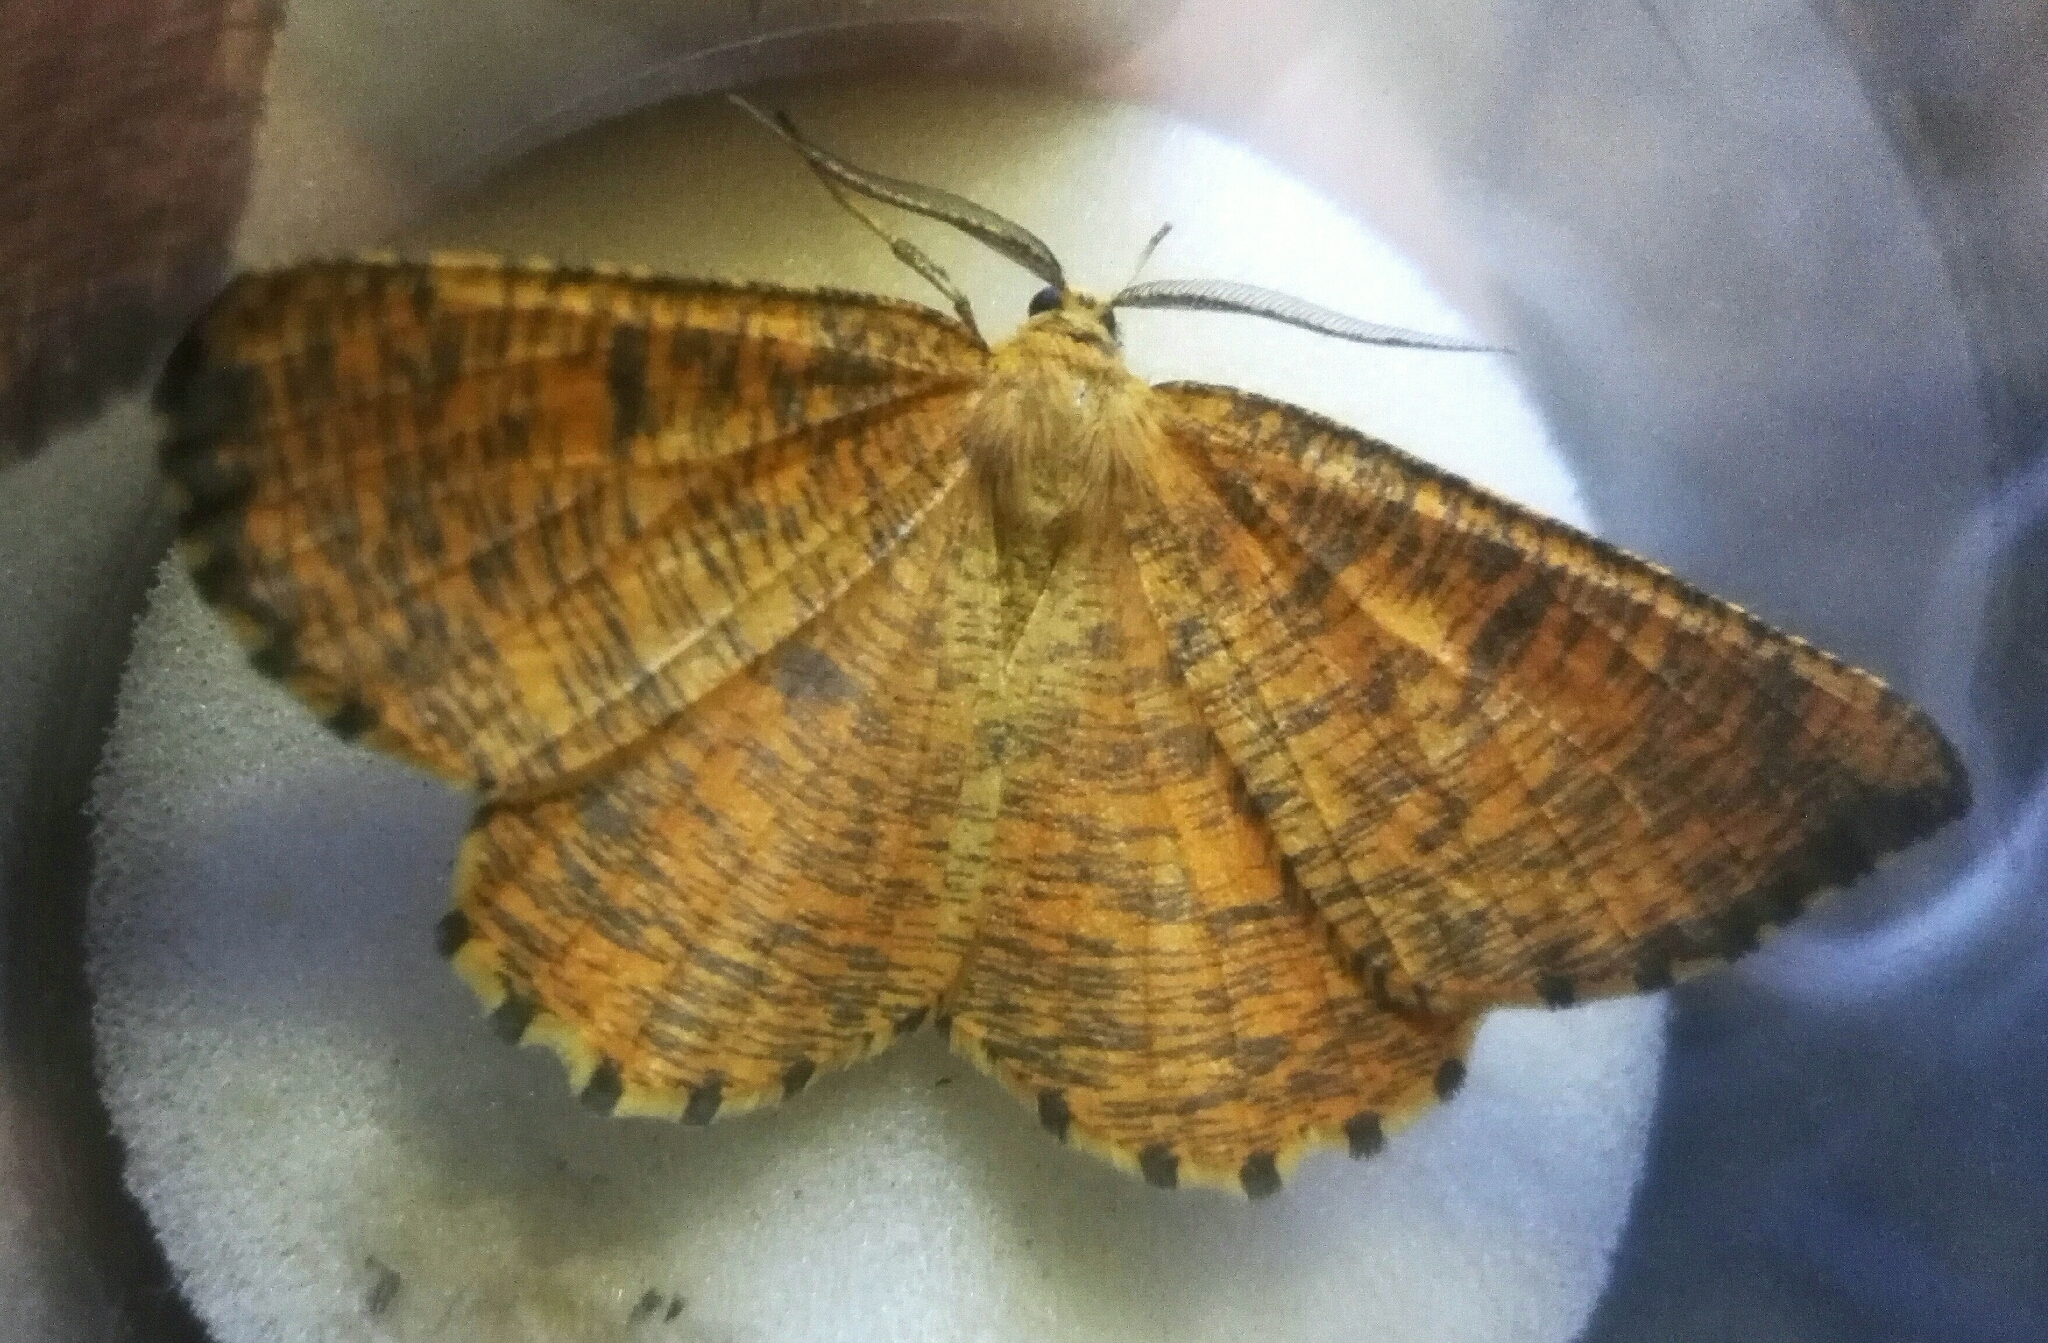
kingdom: Animalia
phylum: Arthropoda
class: Insecta
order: Lepidoptera
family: Geometridae
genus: Angerona
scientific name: Angerona prunaria
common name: Orange moth
